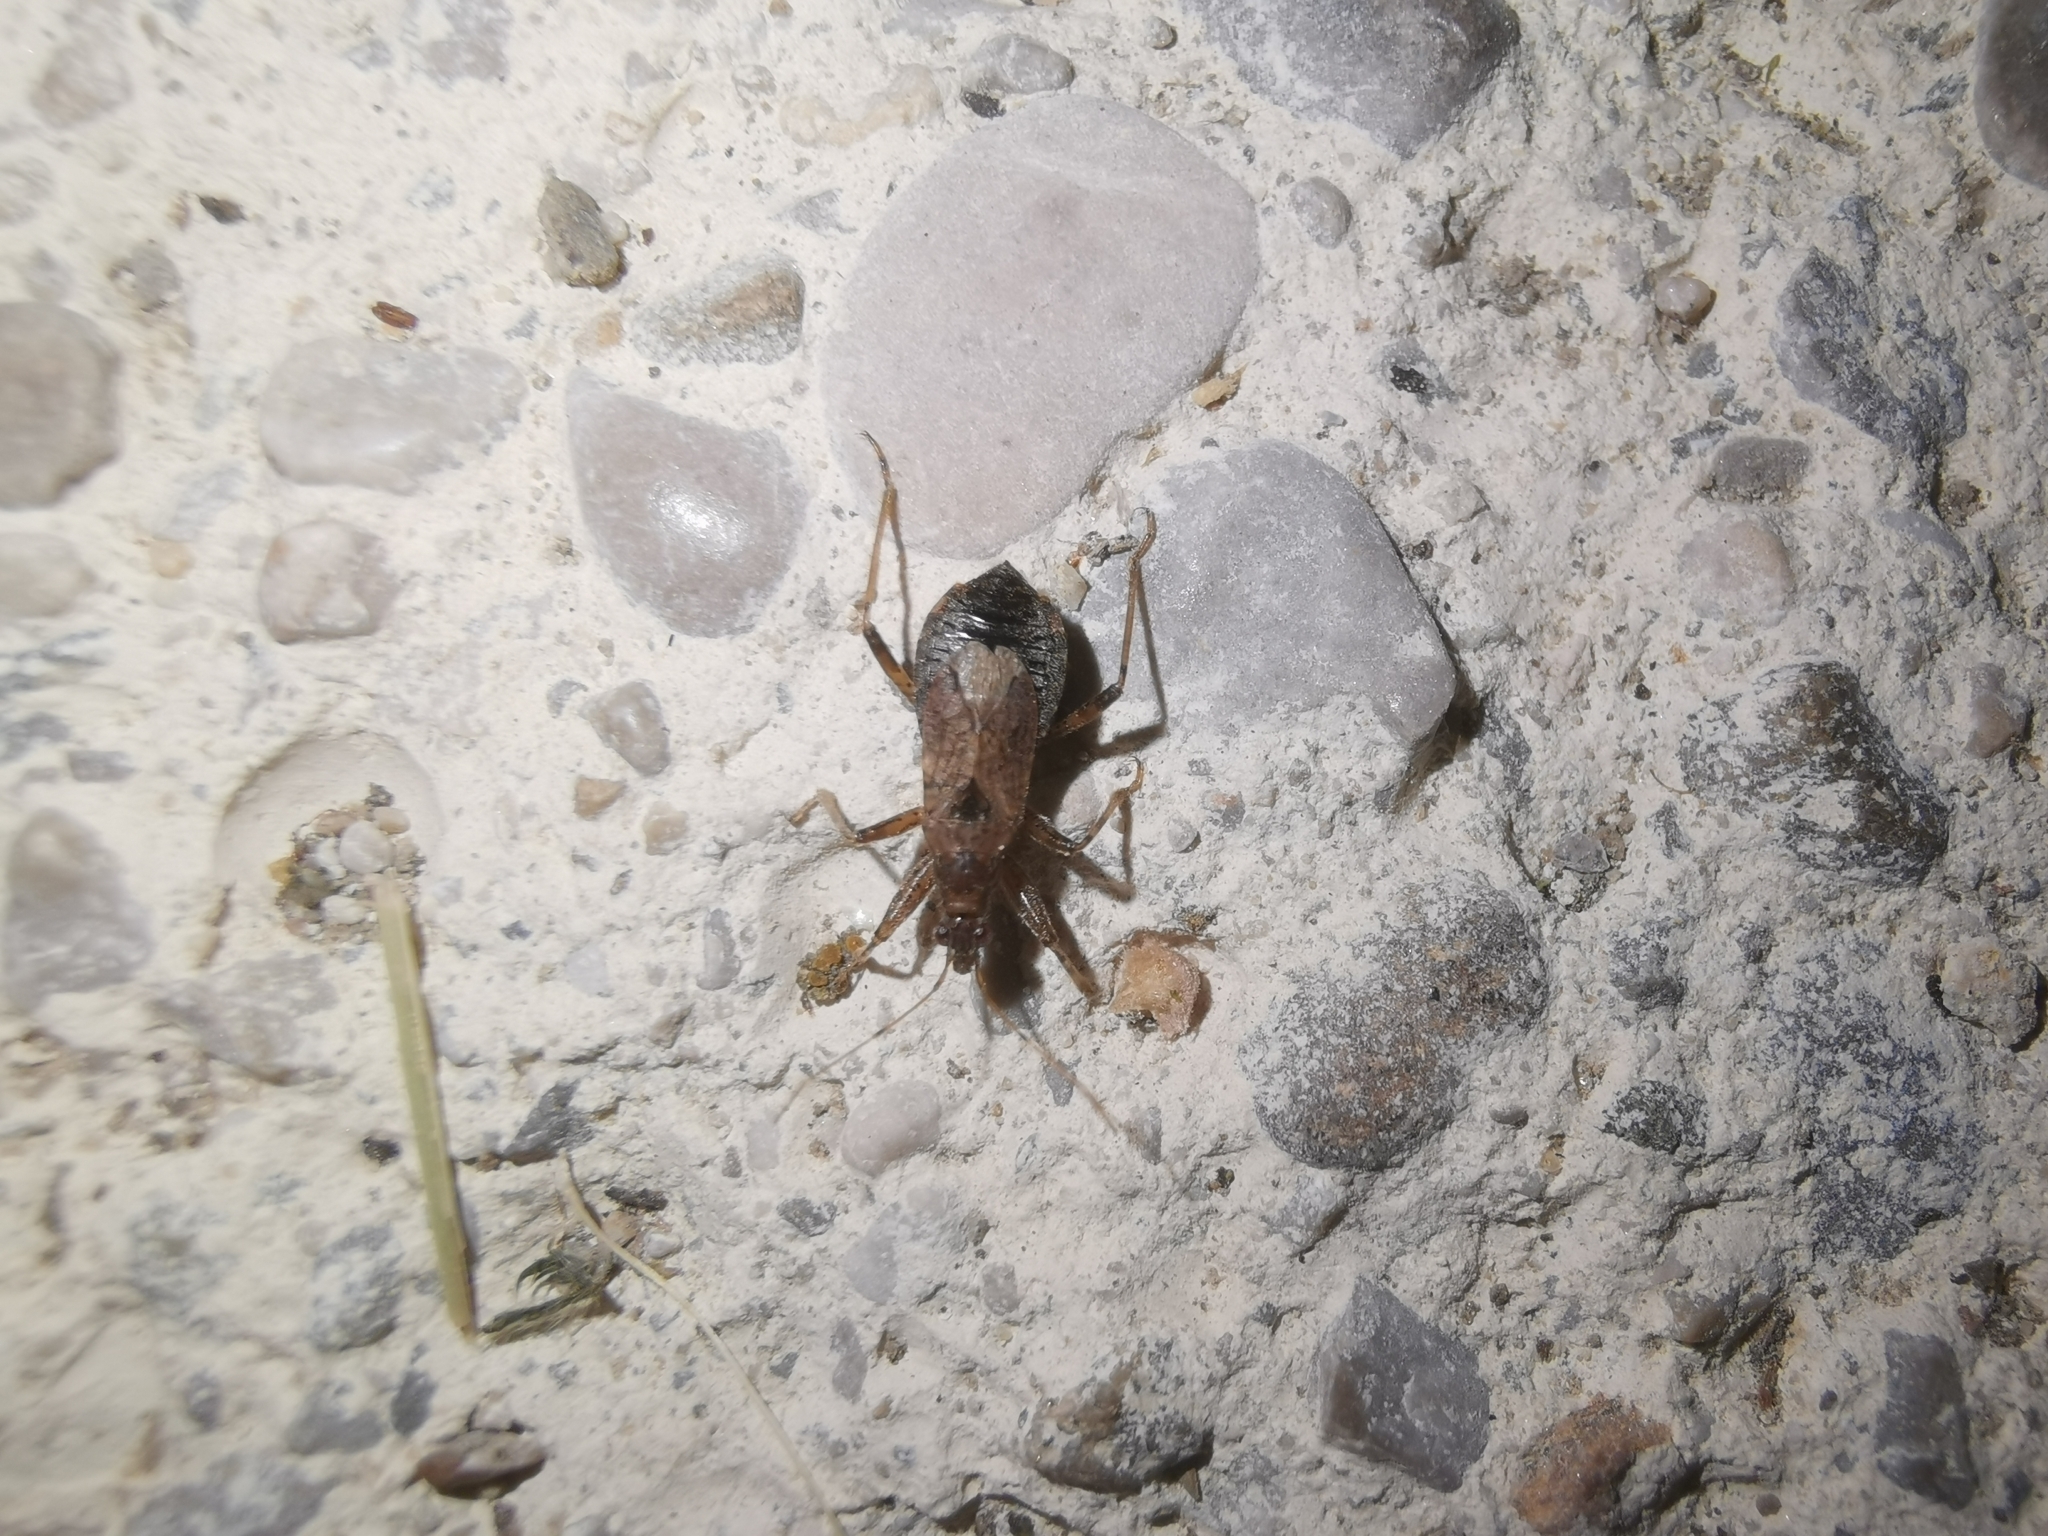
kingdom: Animalia
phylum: Arthropoda
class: Insecta
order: Hemiptera
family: Nabidae
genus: Himacerus
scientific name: Himacerus mirmicoides
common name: Ant damsel bug
